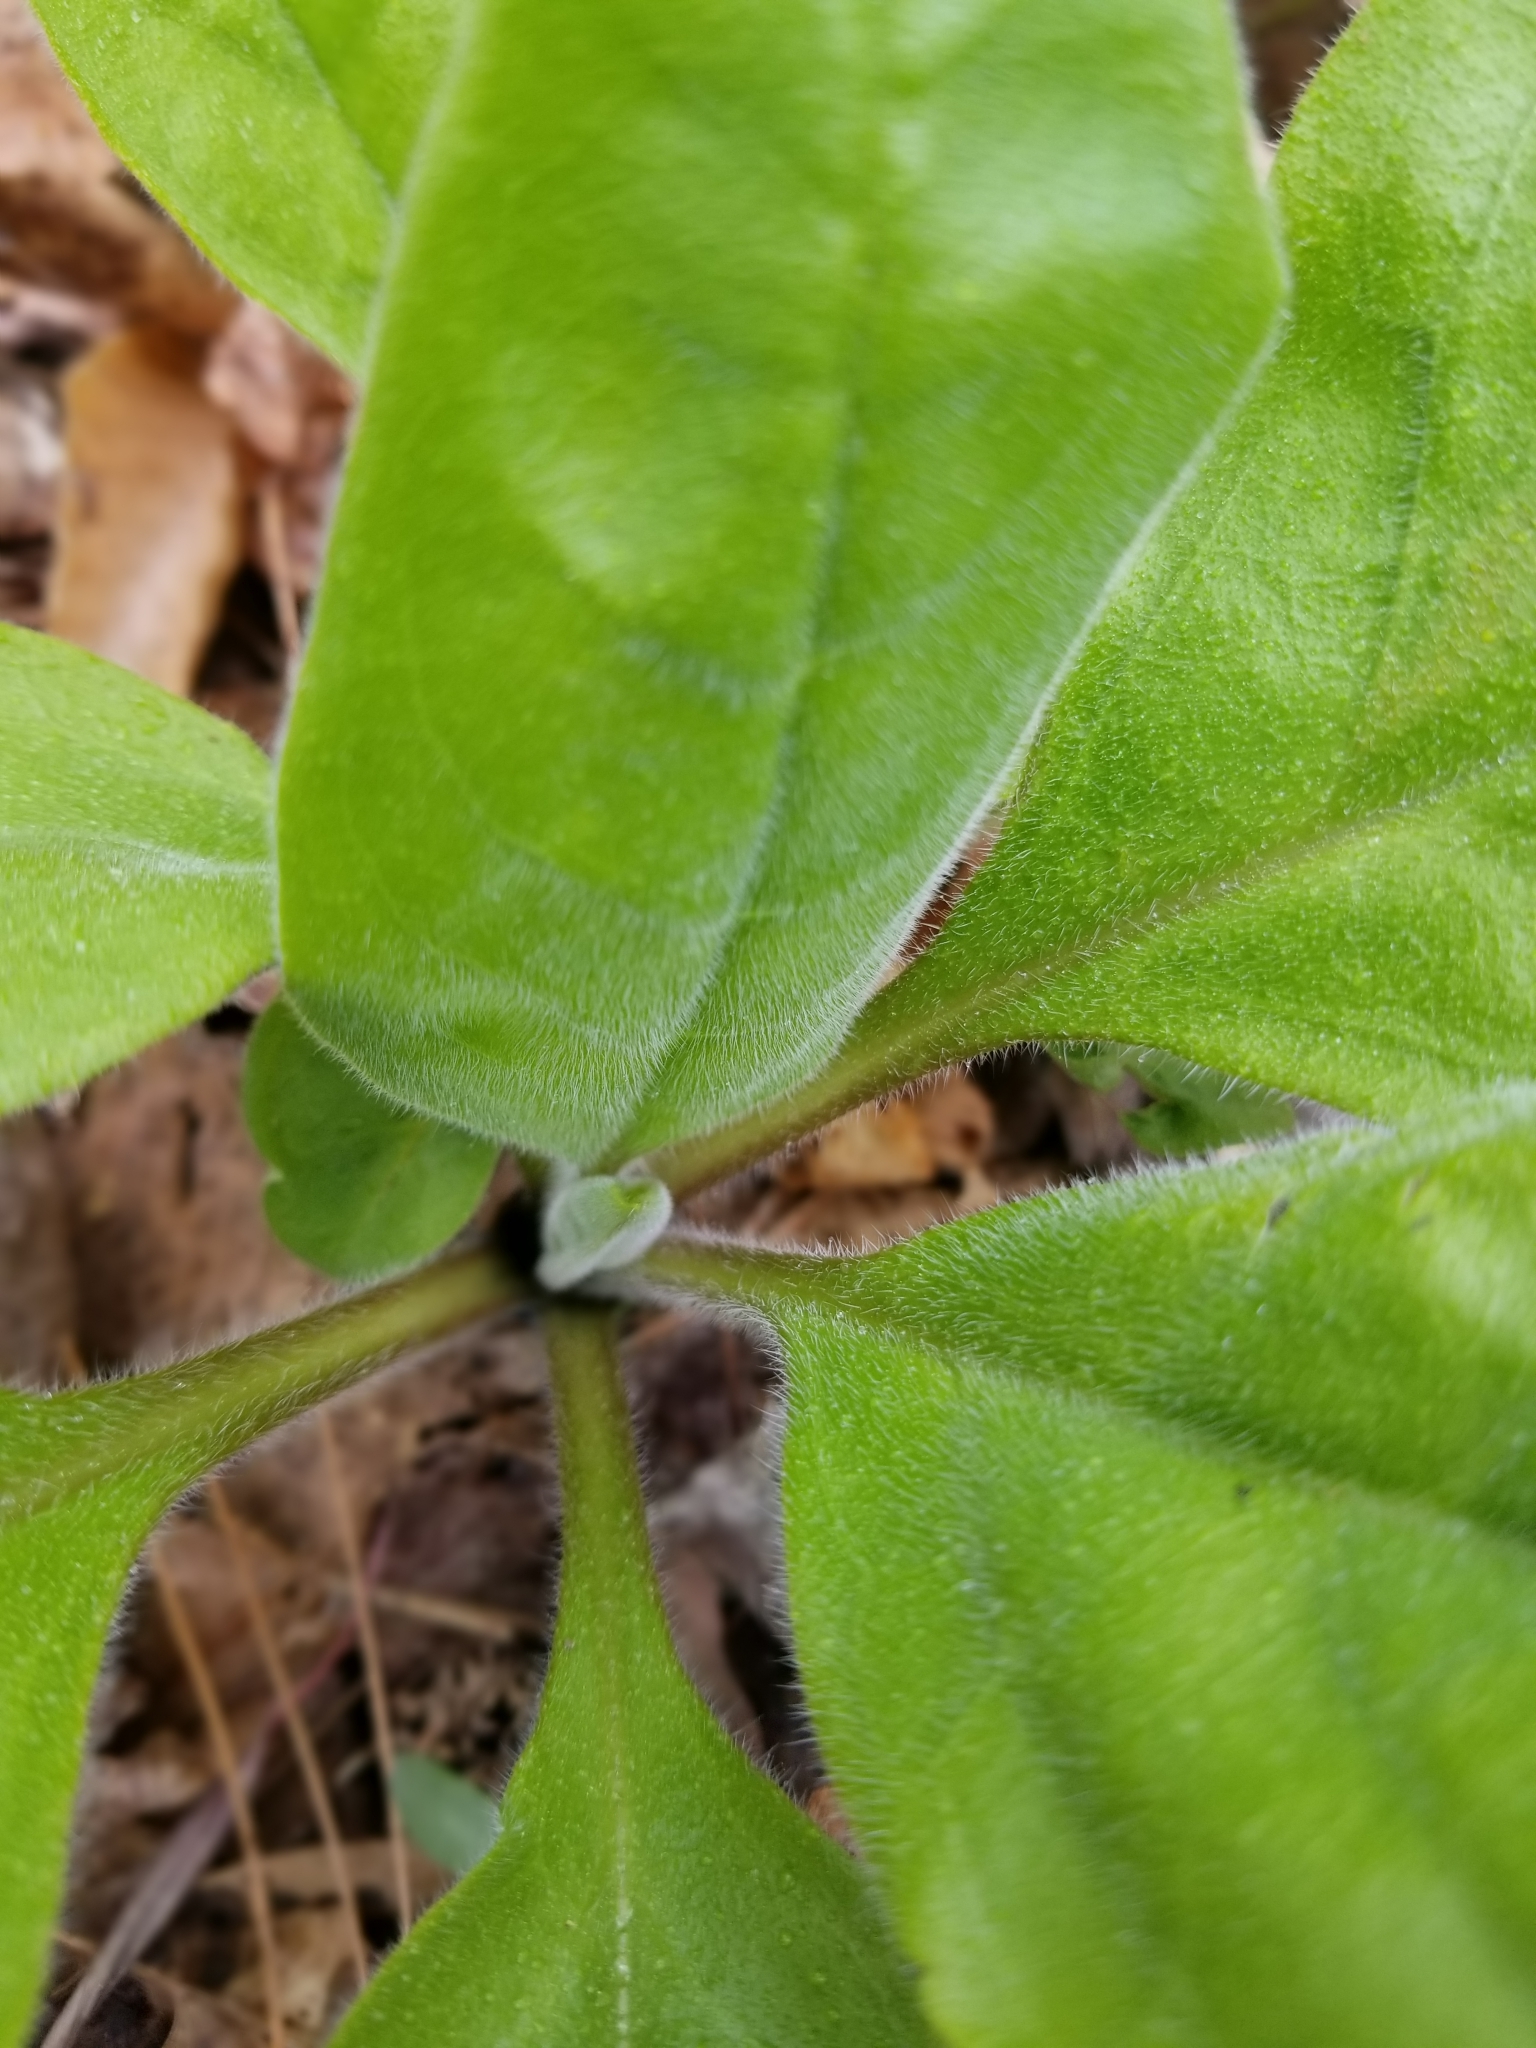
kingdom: Plantae
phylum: Tracheophyta
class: Magnoliopsida
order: Boraginales
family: Boraginaceae
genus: Andersonglossum
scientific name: Andersonglossum virginianum
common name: Wild comfrey
